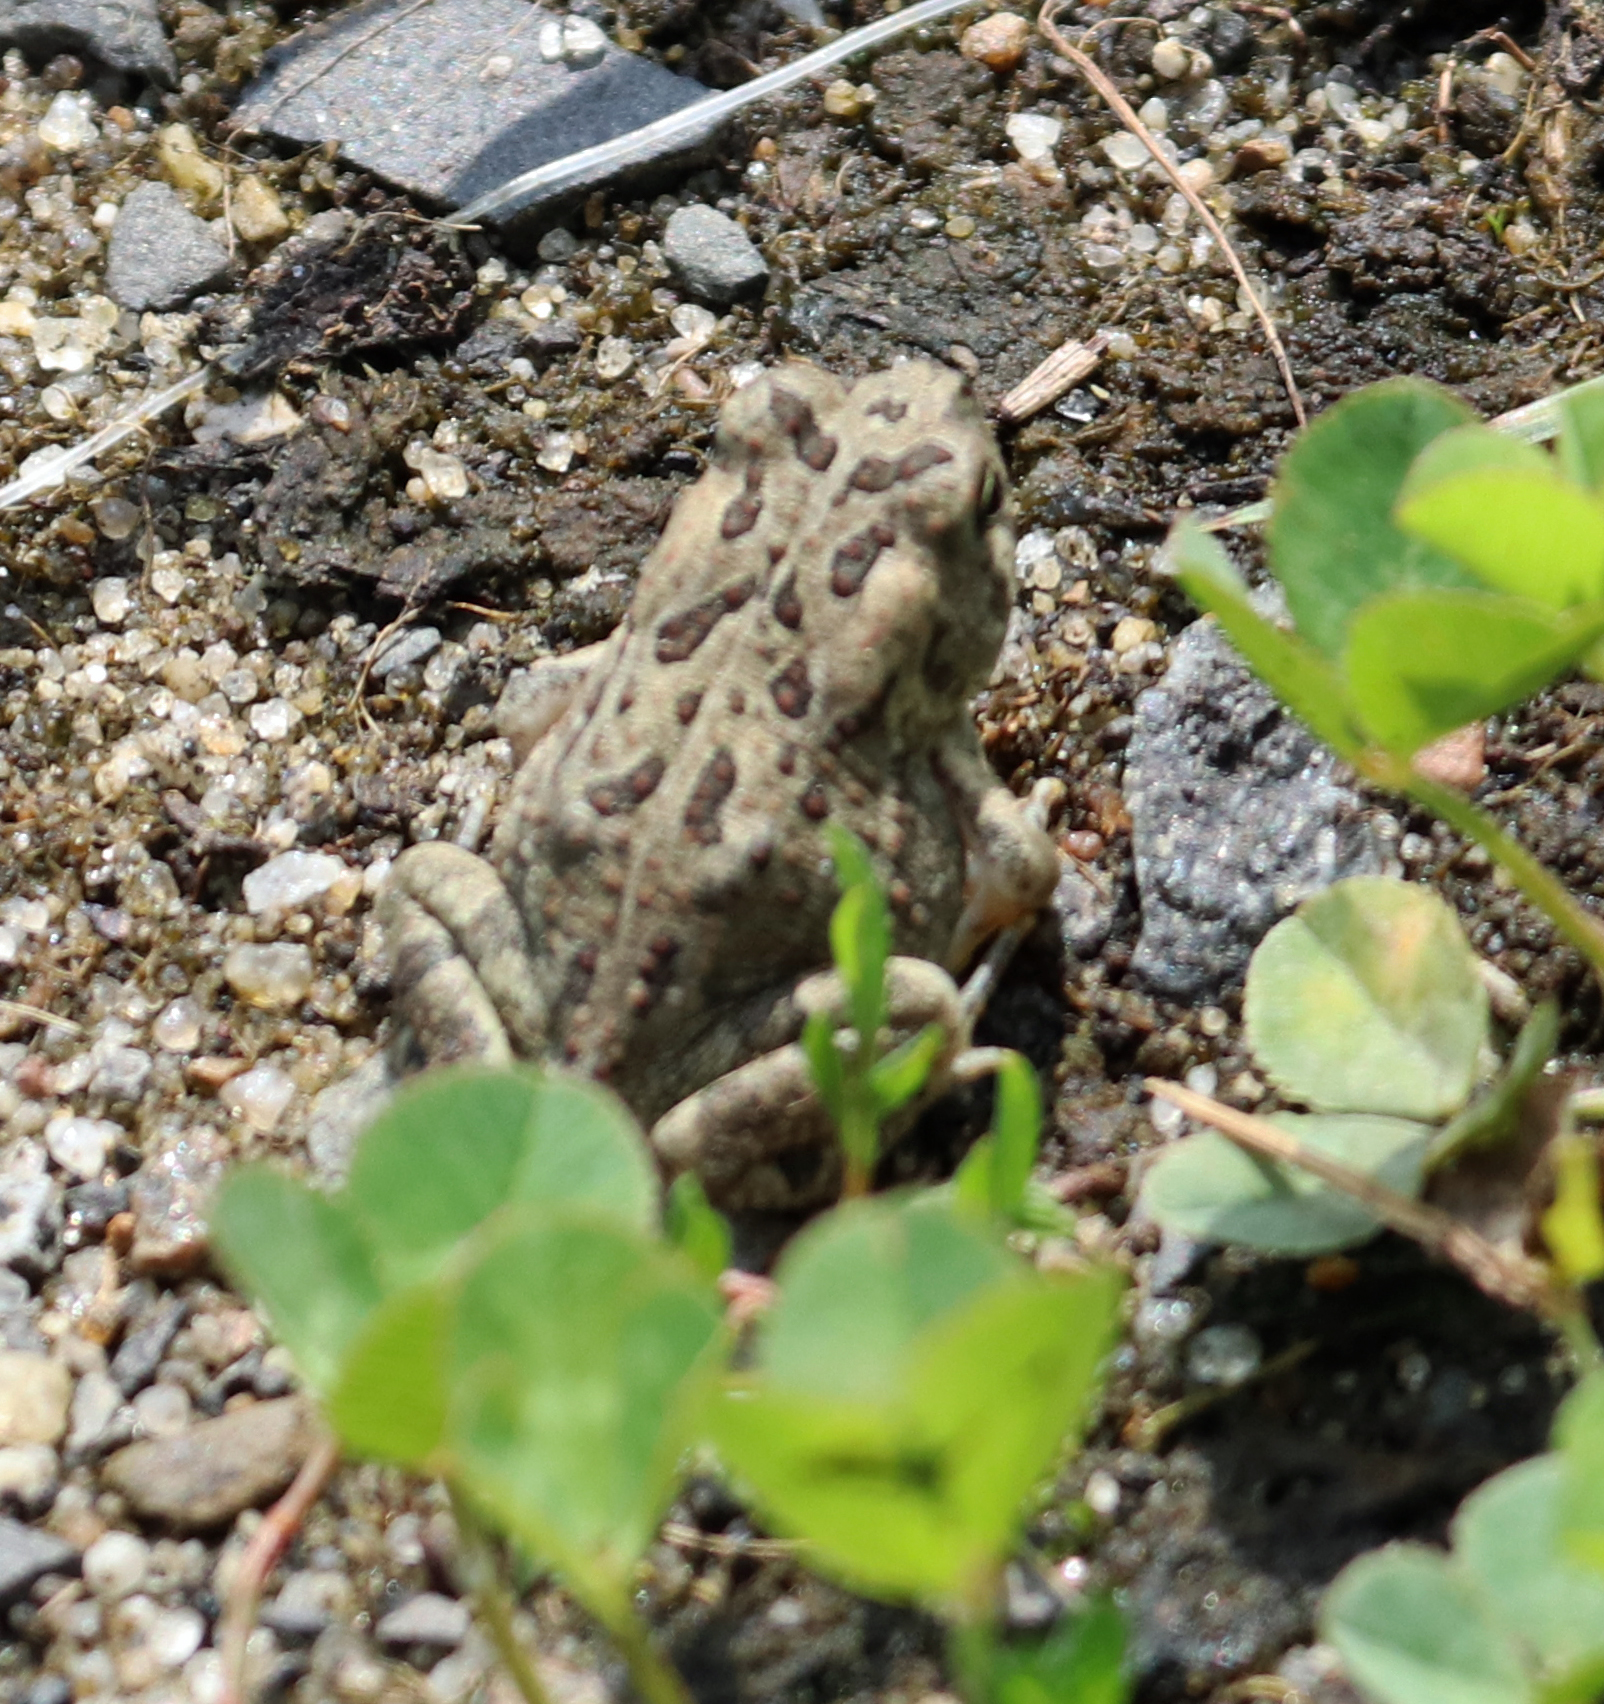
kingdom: Animalia
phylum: Chordata
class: Amphibia
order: Anura
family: Bufonidae
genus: Anaxyrus
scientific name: Anaxyrus fowleri
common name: Fowler's toad
